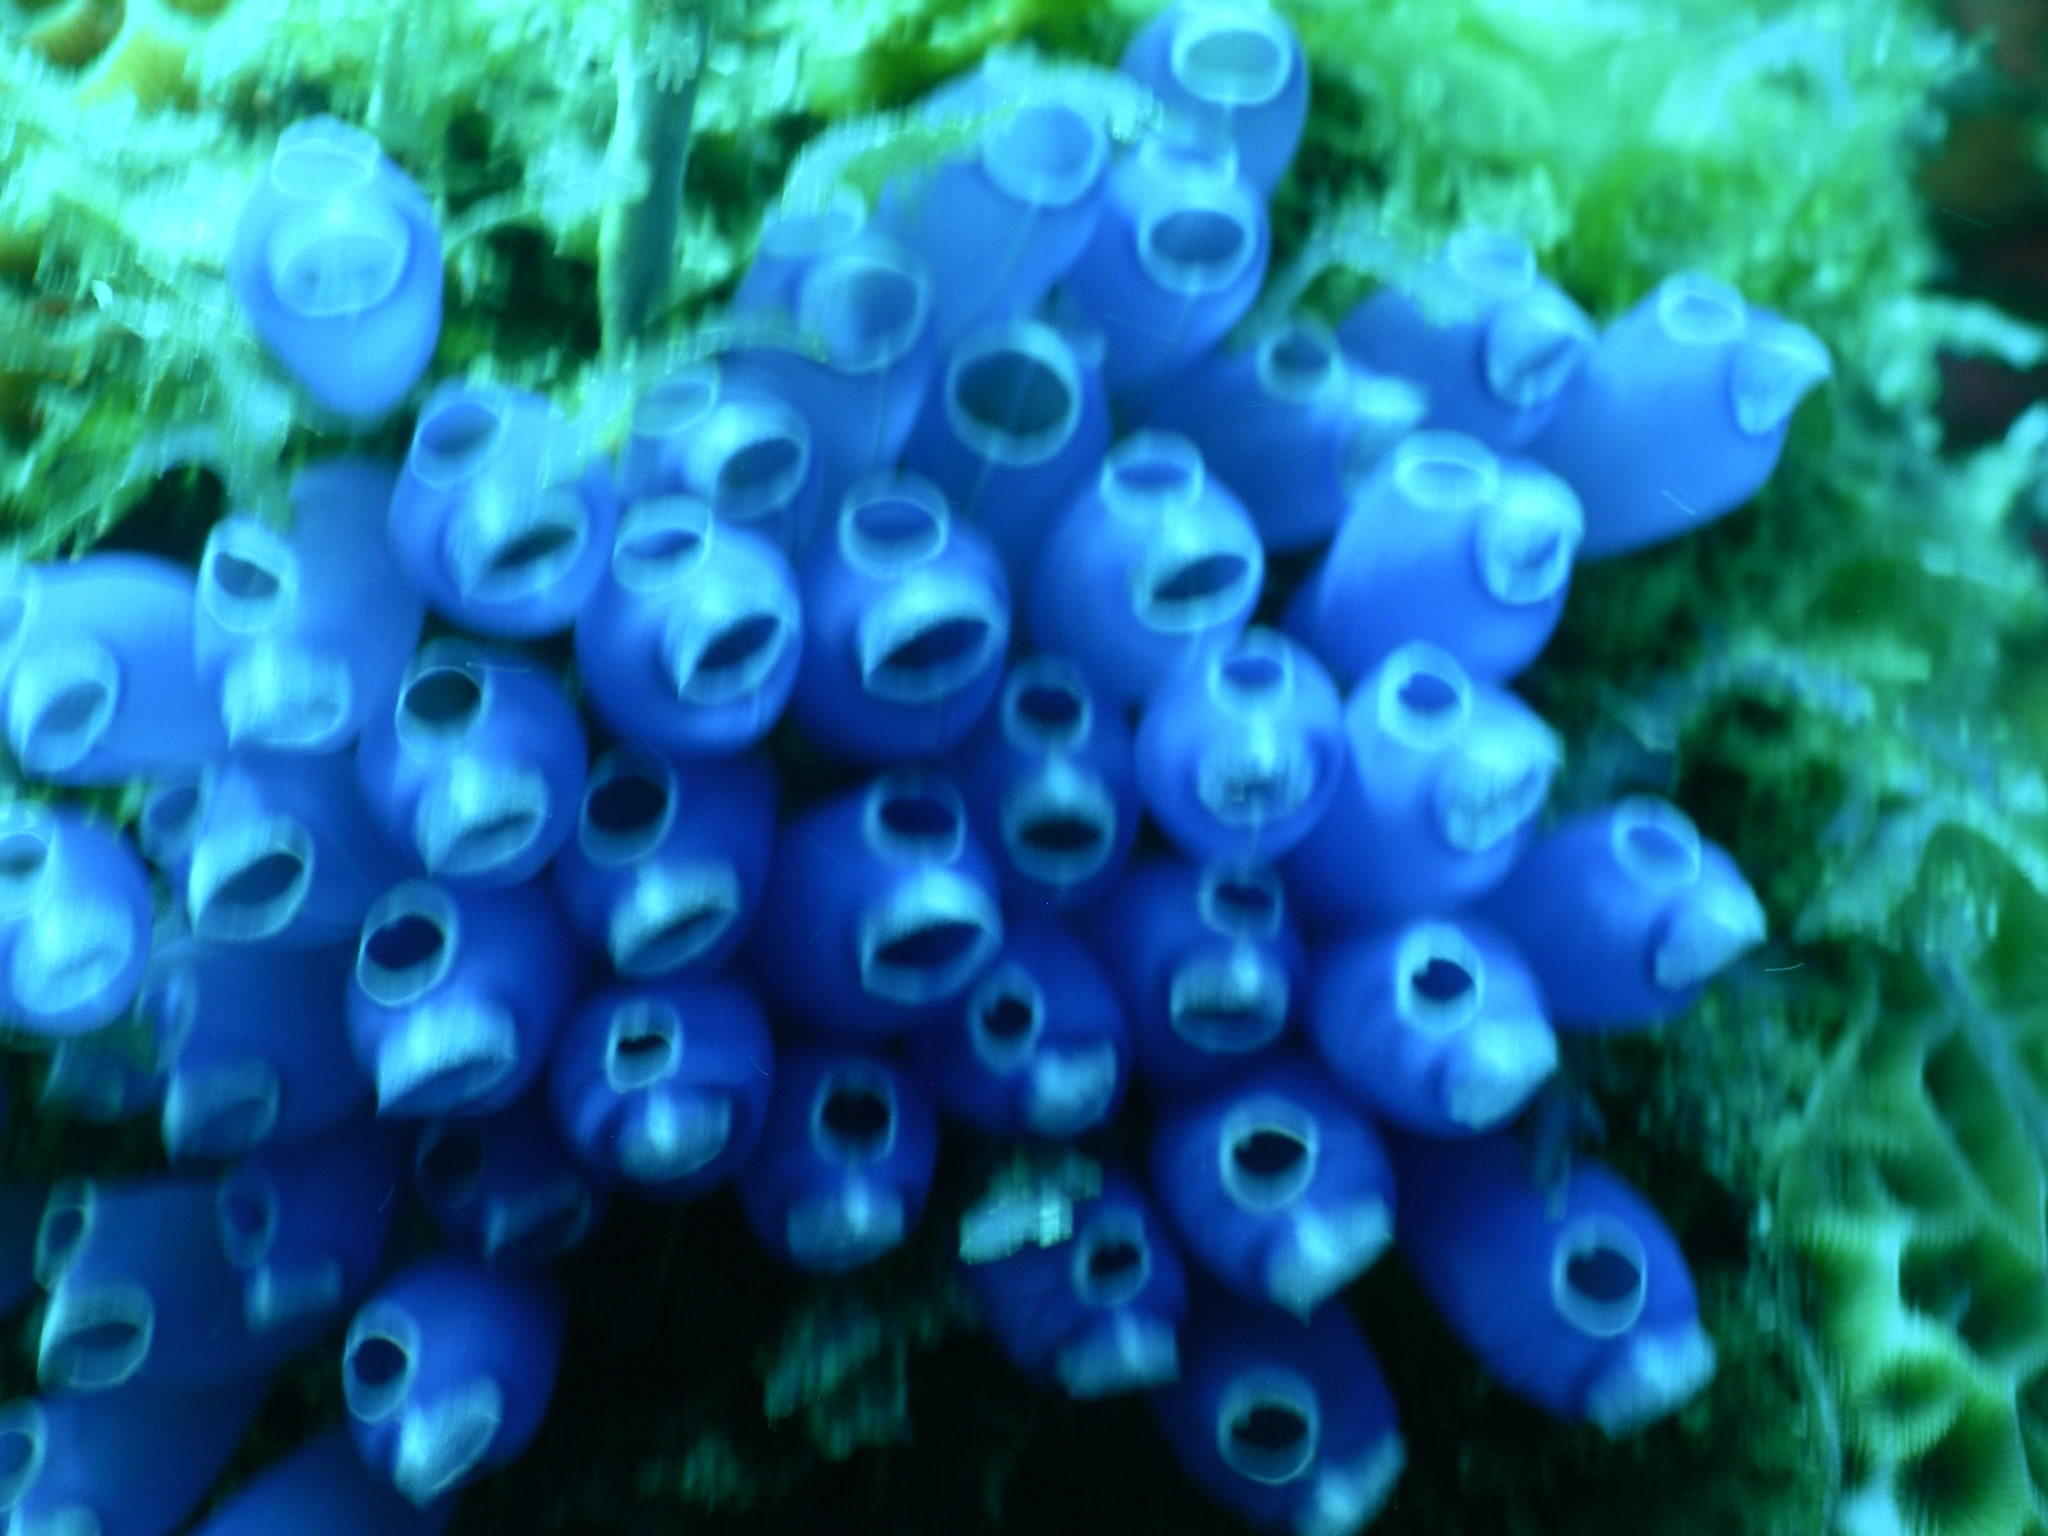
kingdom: Animalia
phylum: Chordata
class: Ascidiacea
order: Aplousobranchia
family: Clavelinidae
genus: Clavelina
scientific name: Clavelina puertosecensis
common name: Blue bell tunicate
